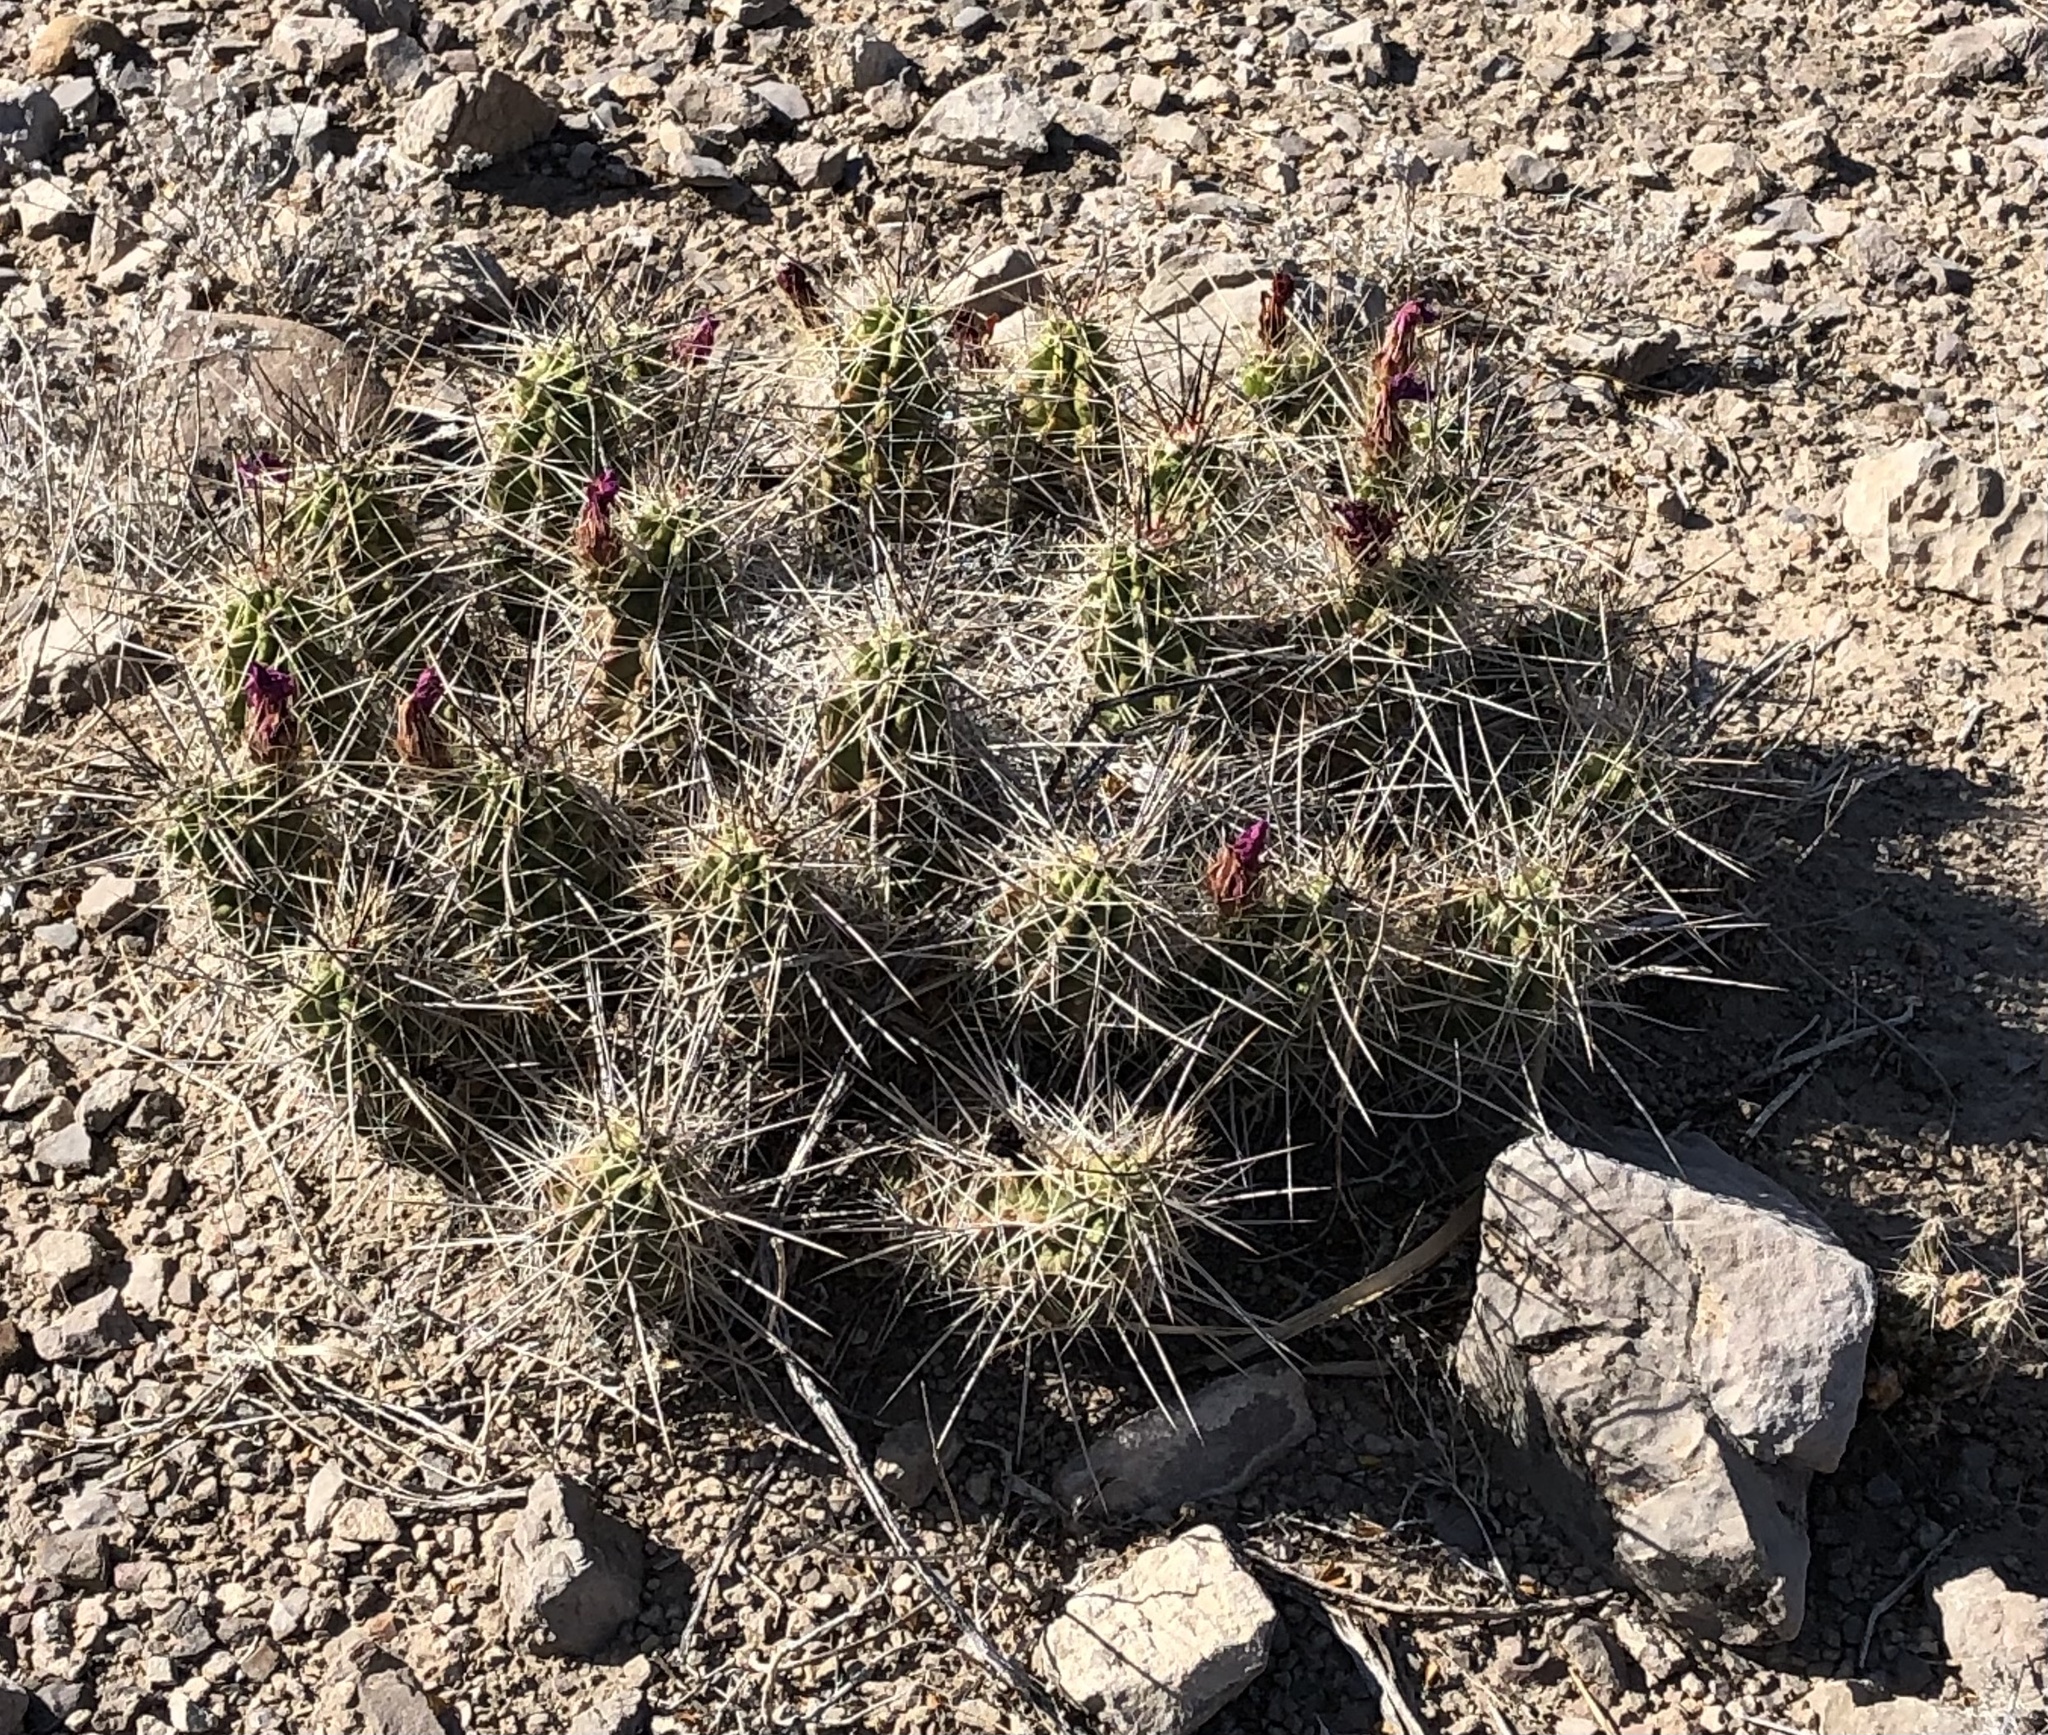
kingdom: Plantae
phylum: Tracheophyta
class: Magnoliopsida
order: Caryophyllales
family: Cactaceae
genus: Echinocereus
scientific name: Echinocereus enneacanthus
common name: Pitaya
